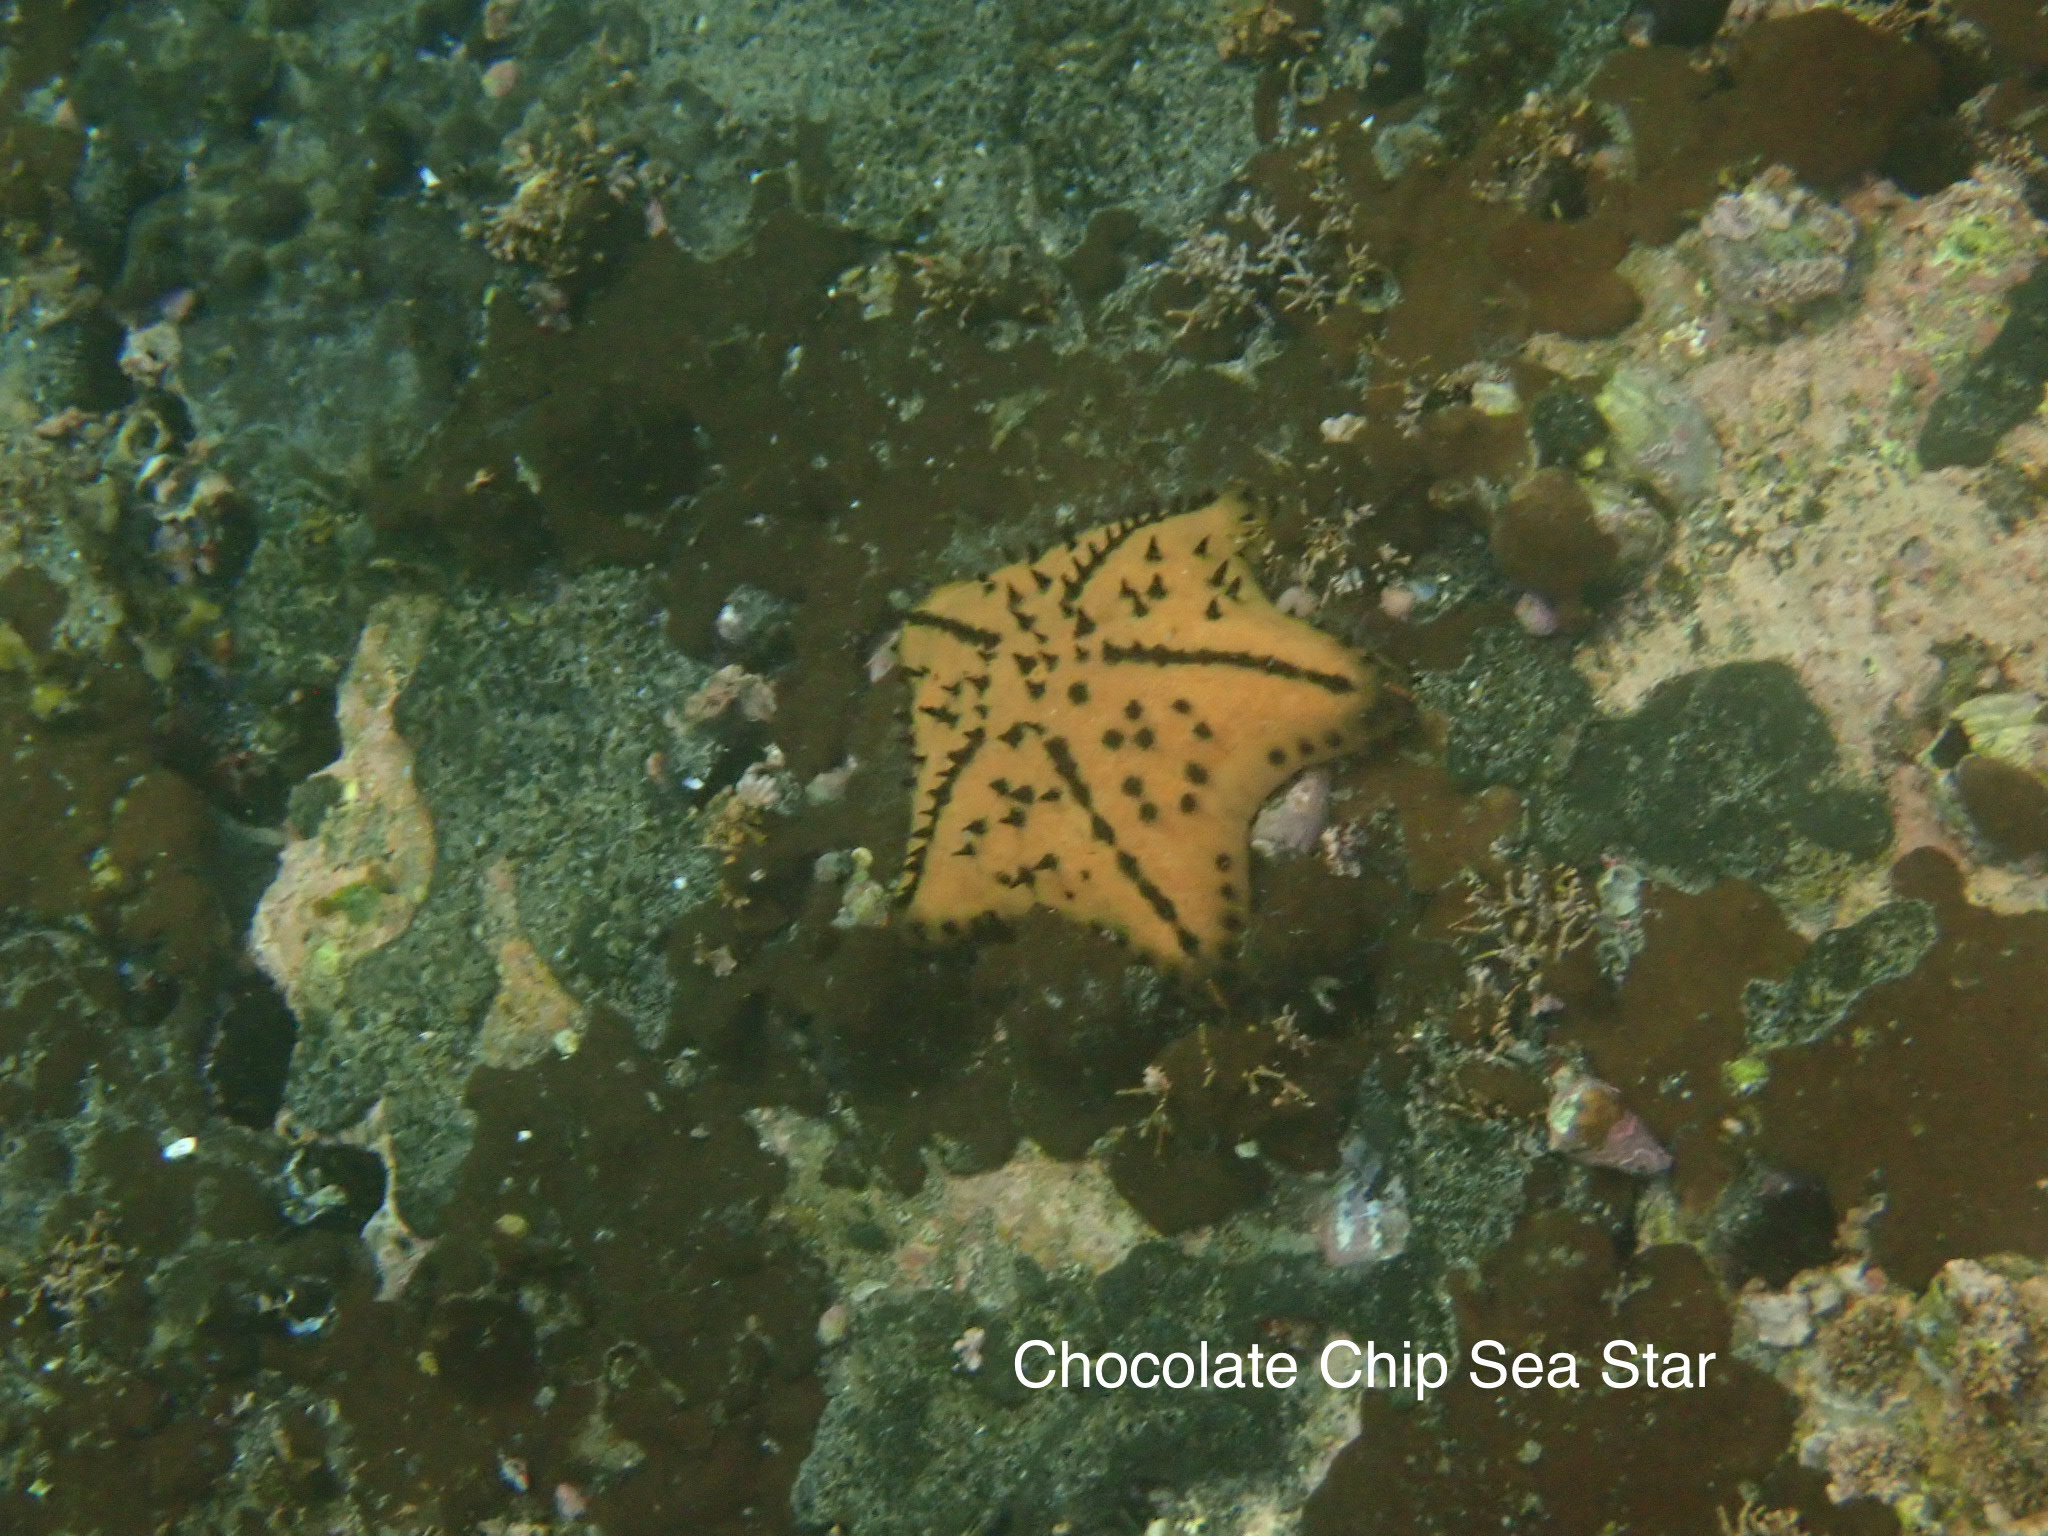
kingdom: Animalia
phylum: Echinodermata
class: Asteroidea
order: Valvatida
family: Oreasteridae
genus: Nidorellia
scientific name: Nidorellia armata
